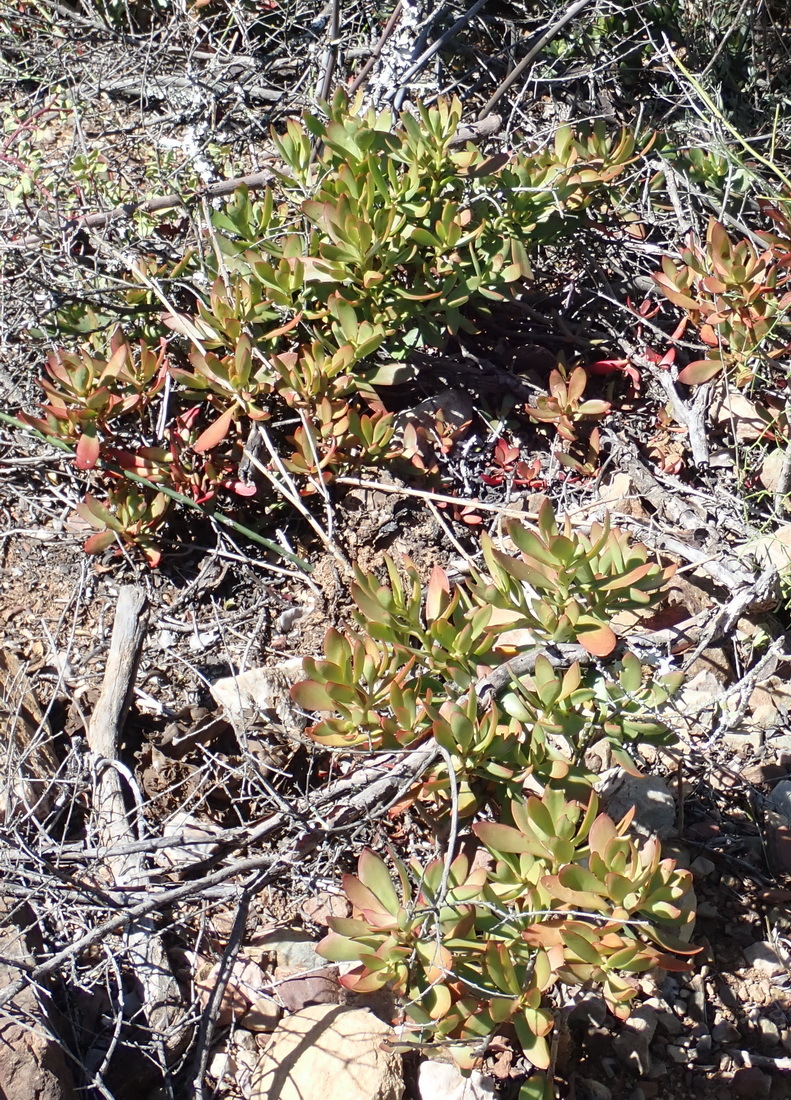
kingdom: Plantae
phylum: Tracheophyta
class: Magnoliopsida
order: Saxifragales
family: Crassulaceae
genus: Crassula
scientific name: Crassula cultrata
